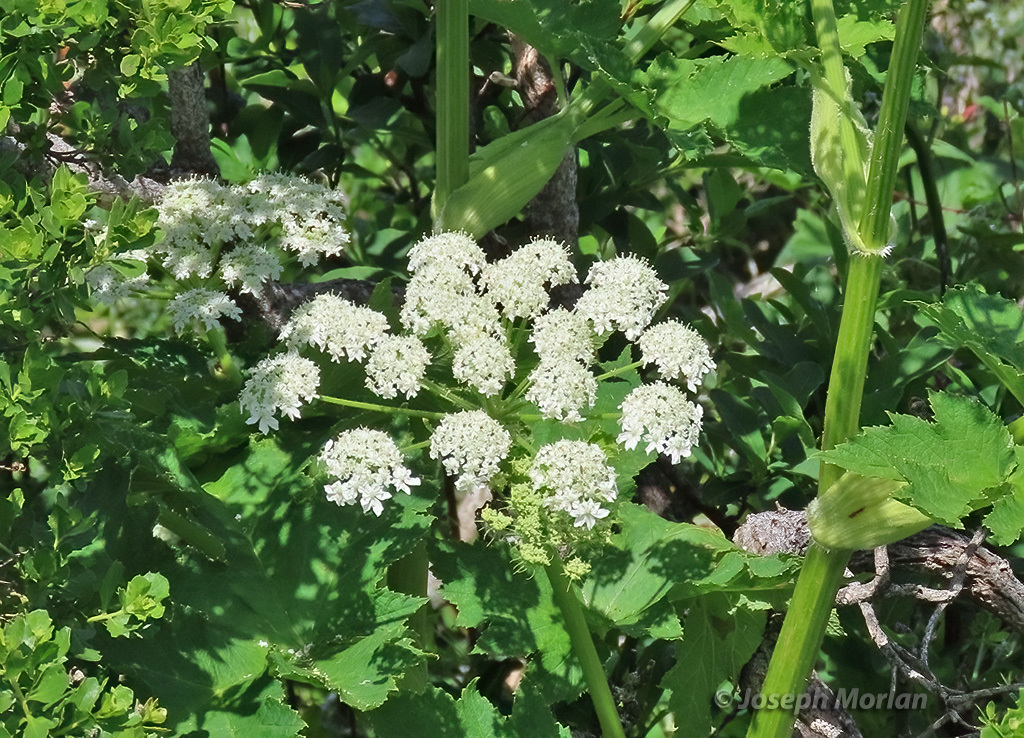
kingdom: Plantae
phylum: Tracheophyta
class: Magnoliopsida
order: Apiales
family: Apiaceae
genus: Heracleum
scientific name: Heracleum maximum
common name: American cow parsnip
